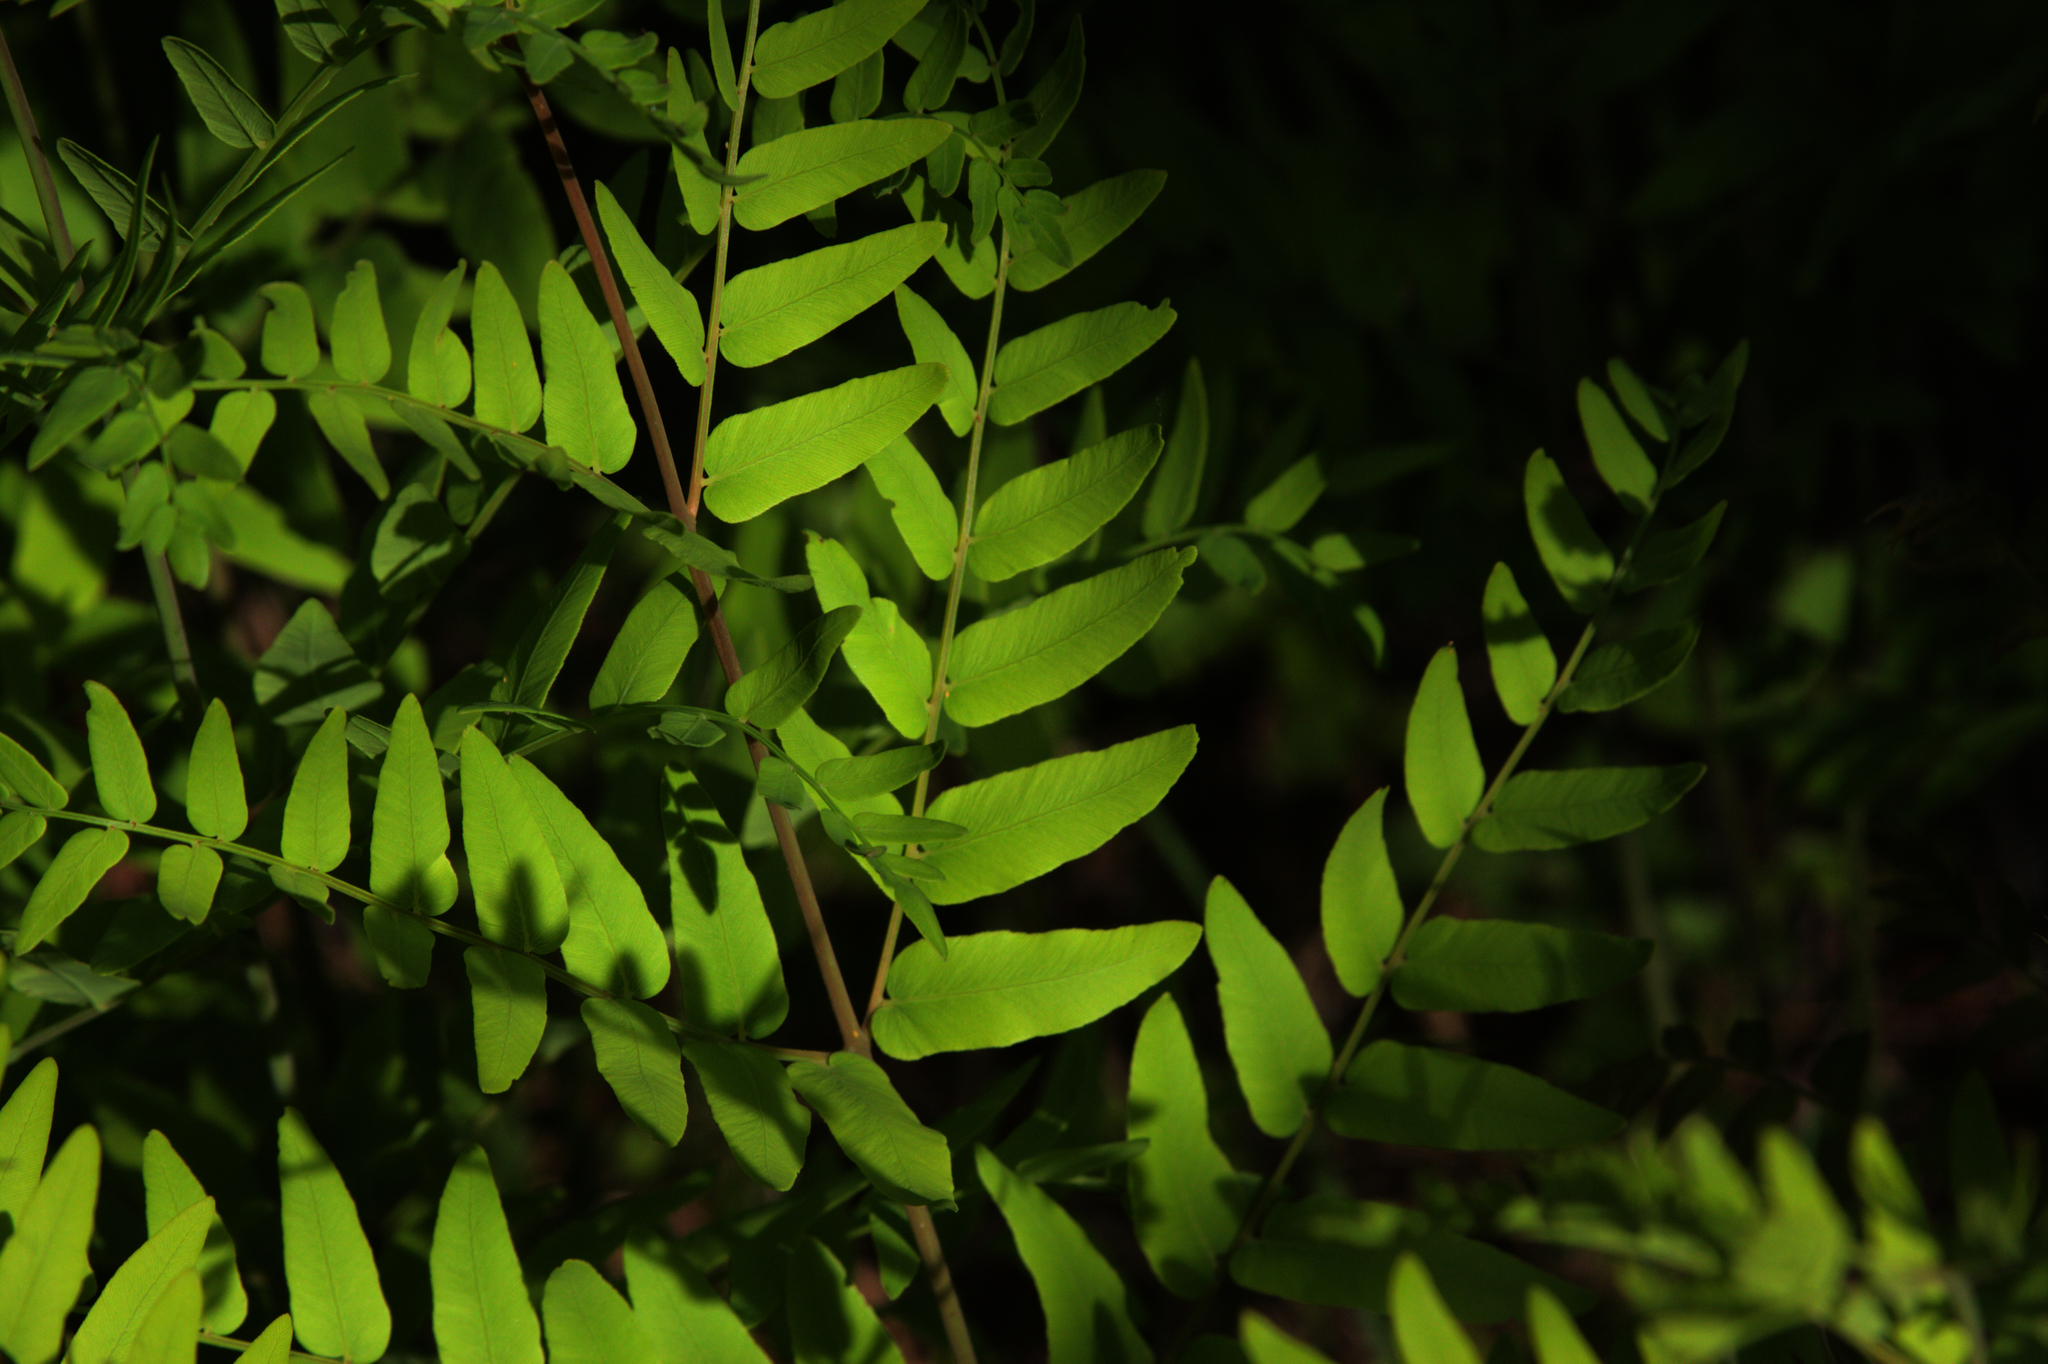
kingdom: Plantae
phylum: Tracheophyta
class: Polypodiopsida
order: Osmundales
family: Osmundaceae
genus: Osmunda
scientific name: Osmunda spectabilis
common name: American royal fern
